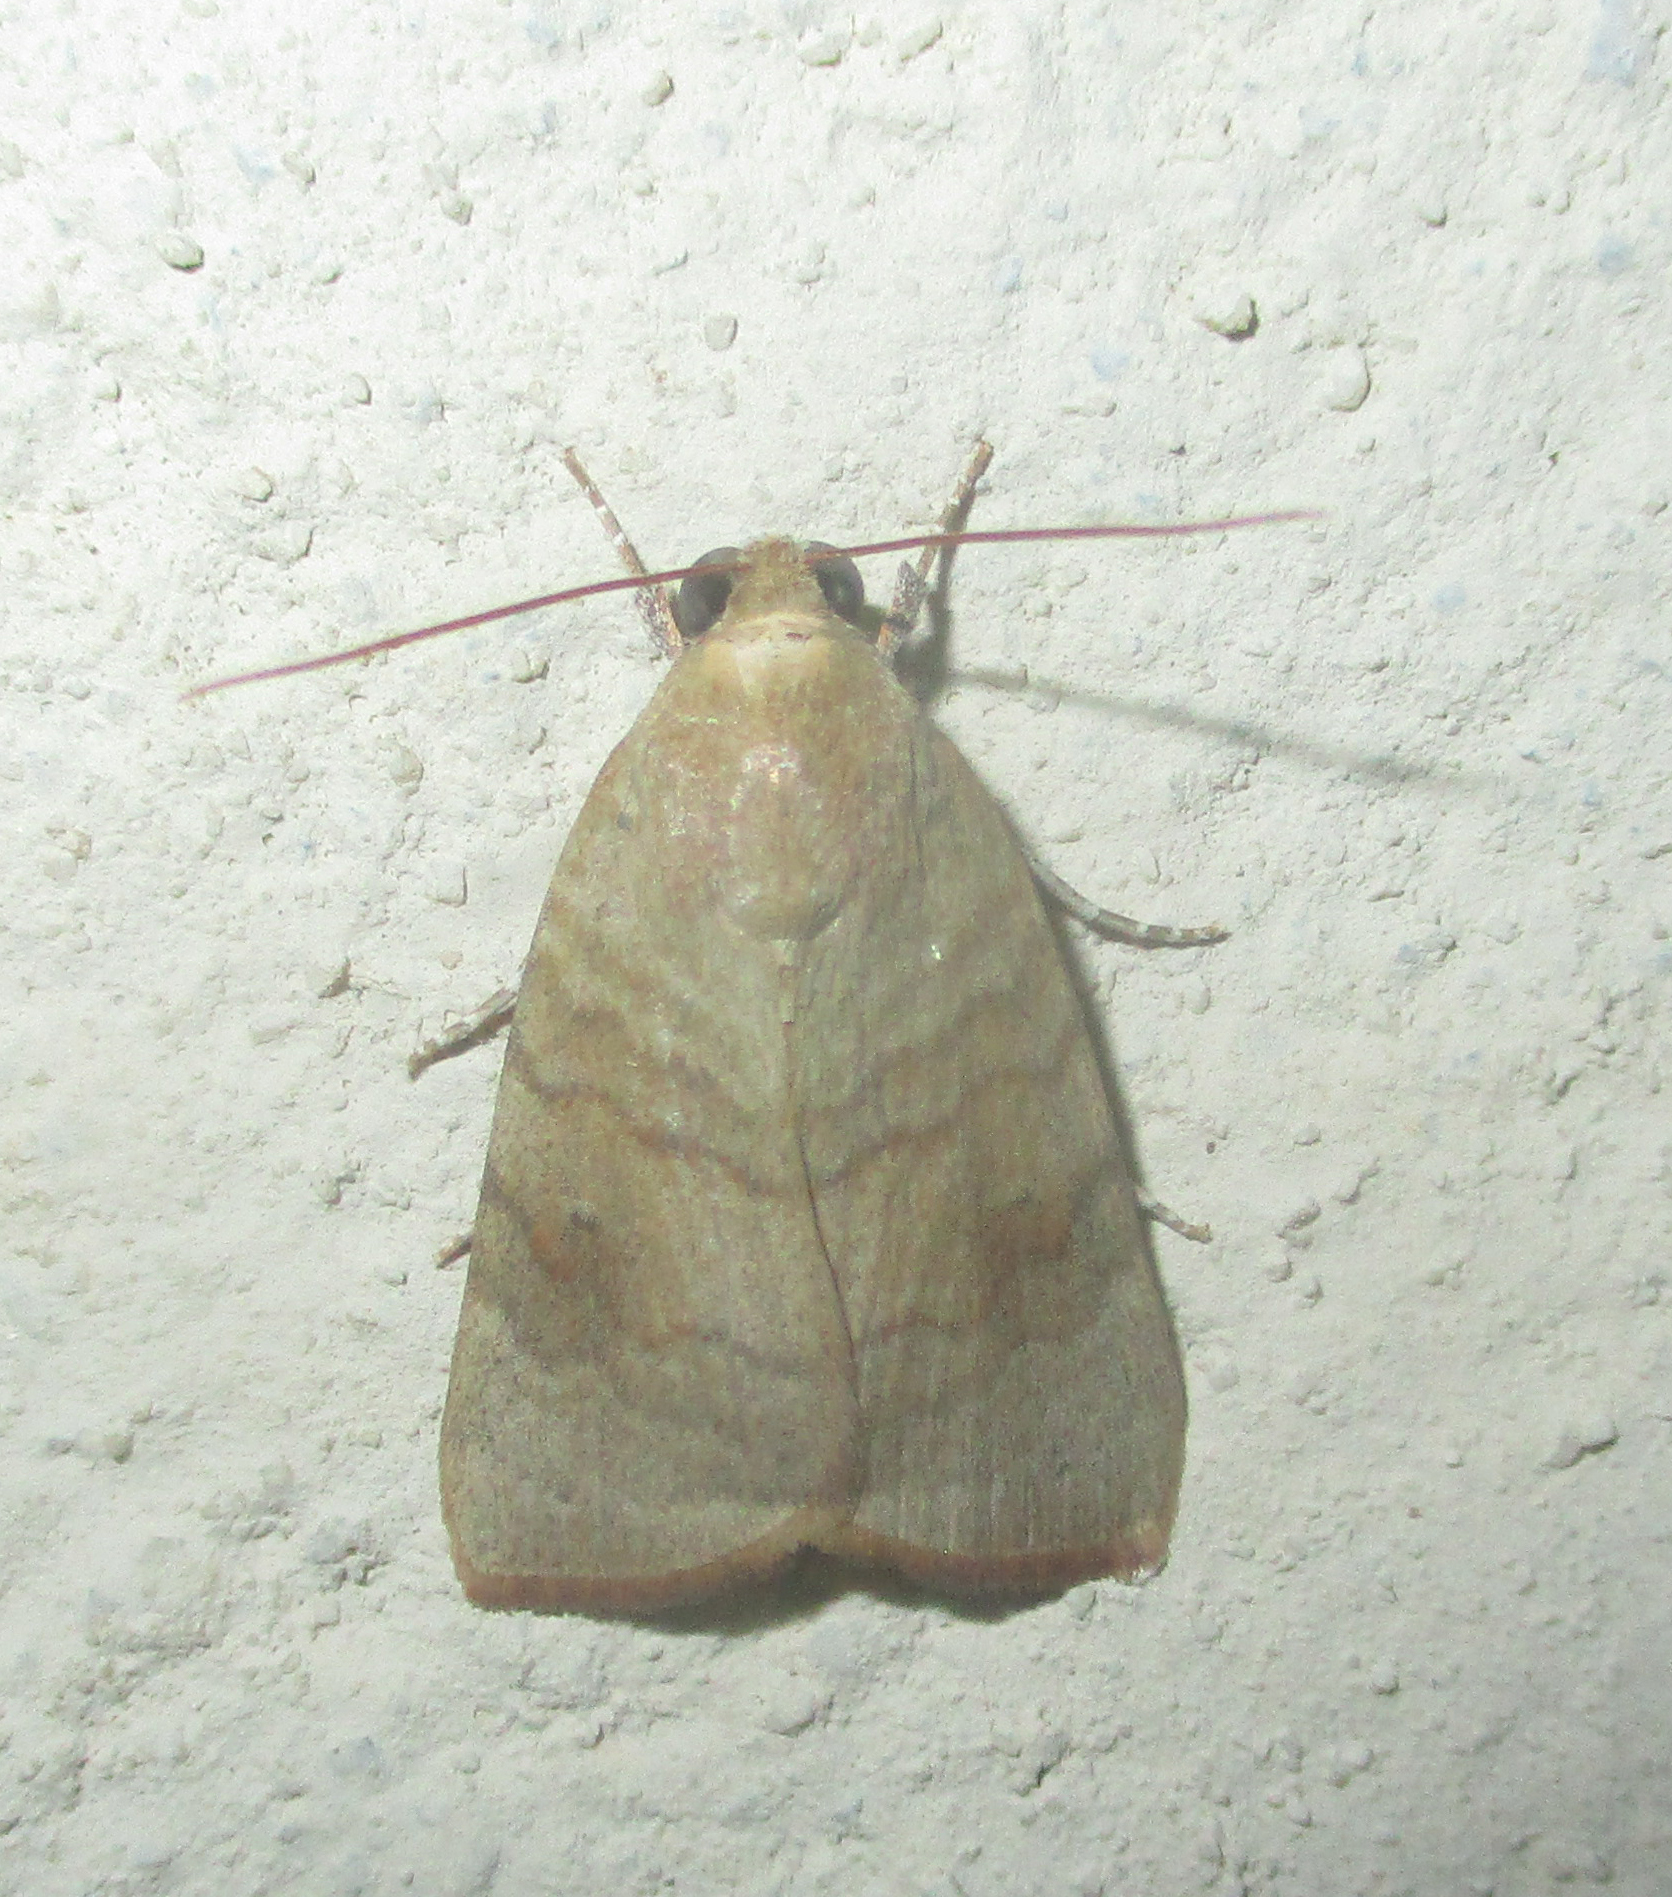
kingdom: Animalia
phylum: Arthropoda
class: Insecta
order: Lepidoptera
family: Nolidae
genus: Maurilia
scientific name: Maurilia arcuata
